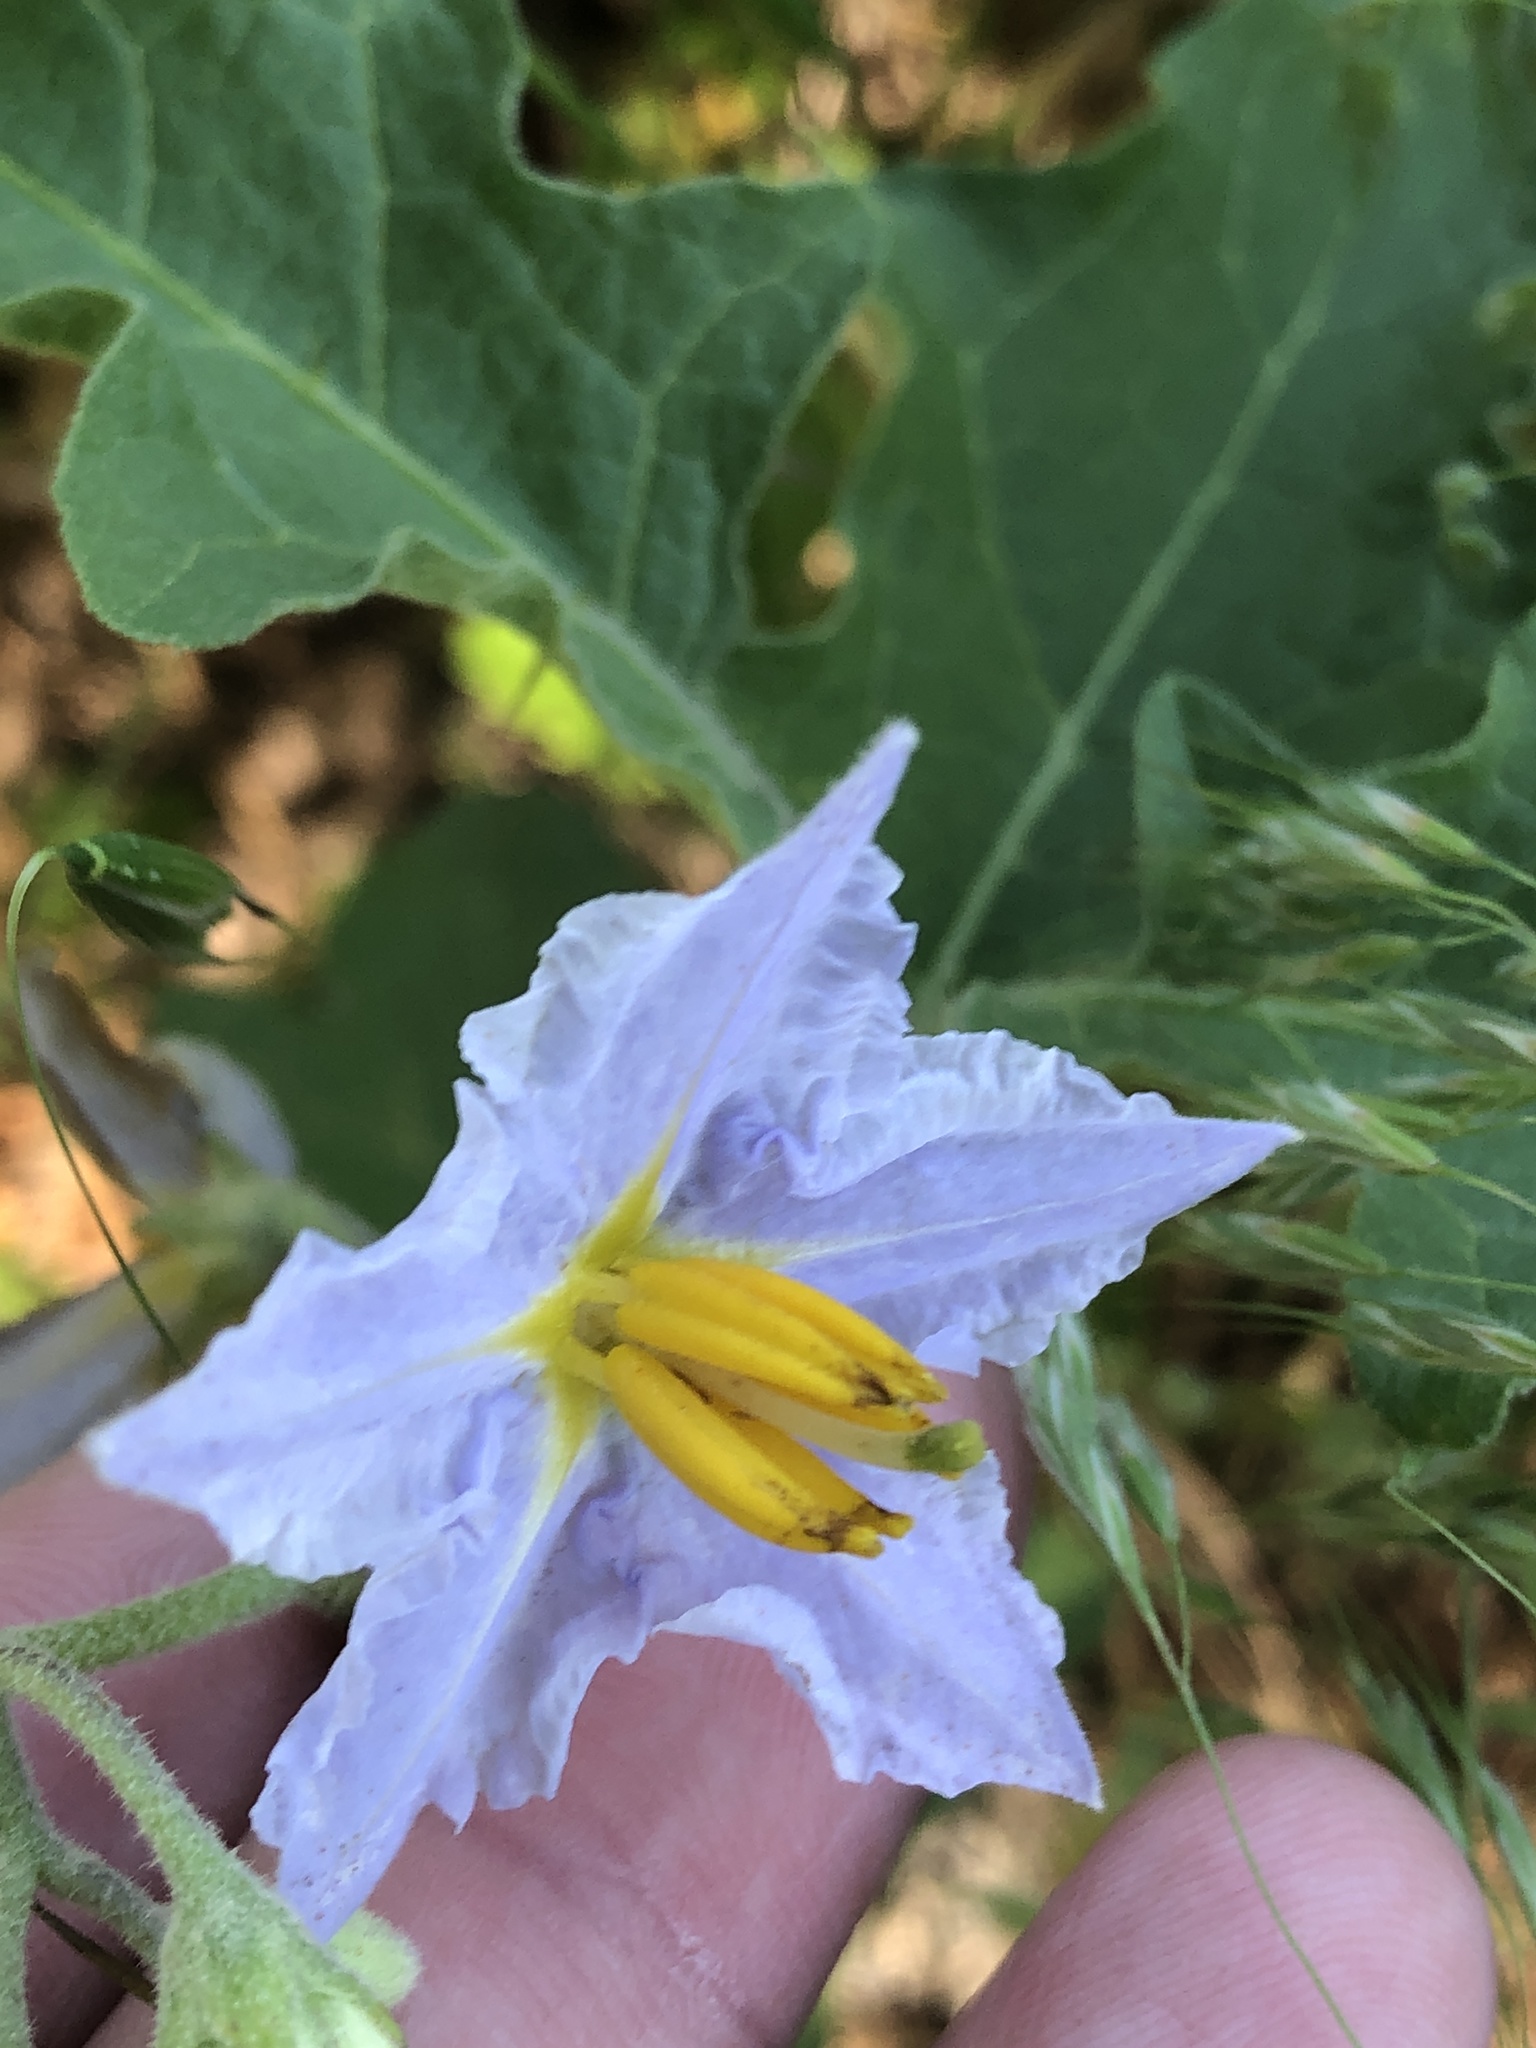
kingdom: Plantae
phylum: Tracheophyta
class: Magnoliopsida
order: Solanales
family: Solanaceae
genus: Solanum
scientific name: Solanum dimidiatum
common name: Carolina horse-nettle
